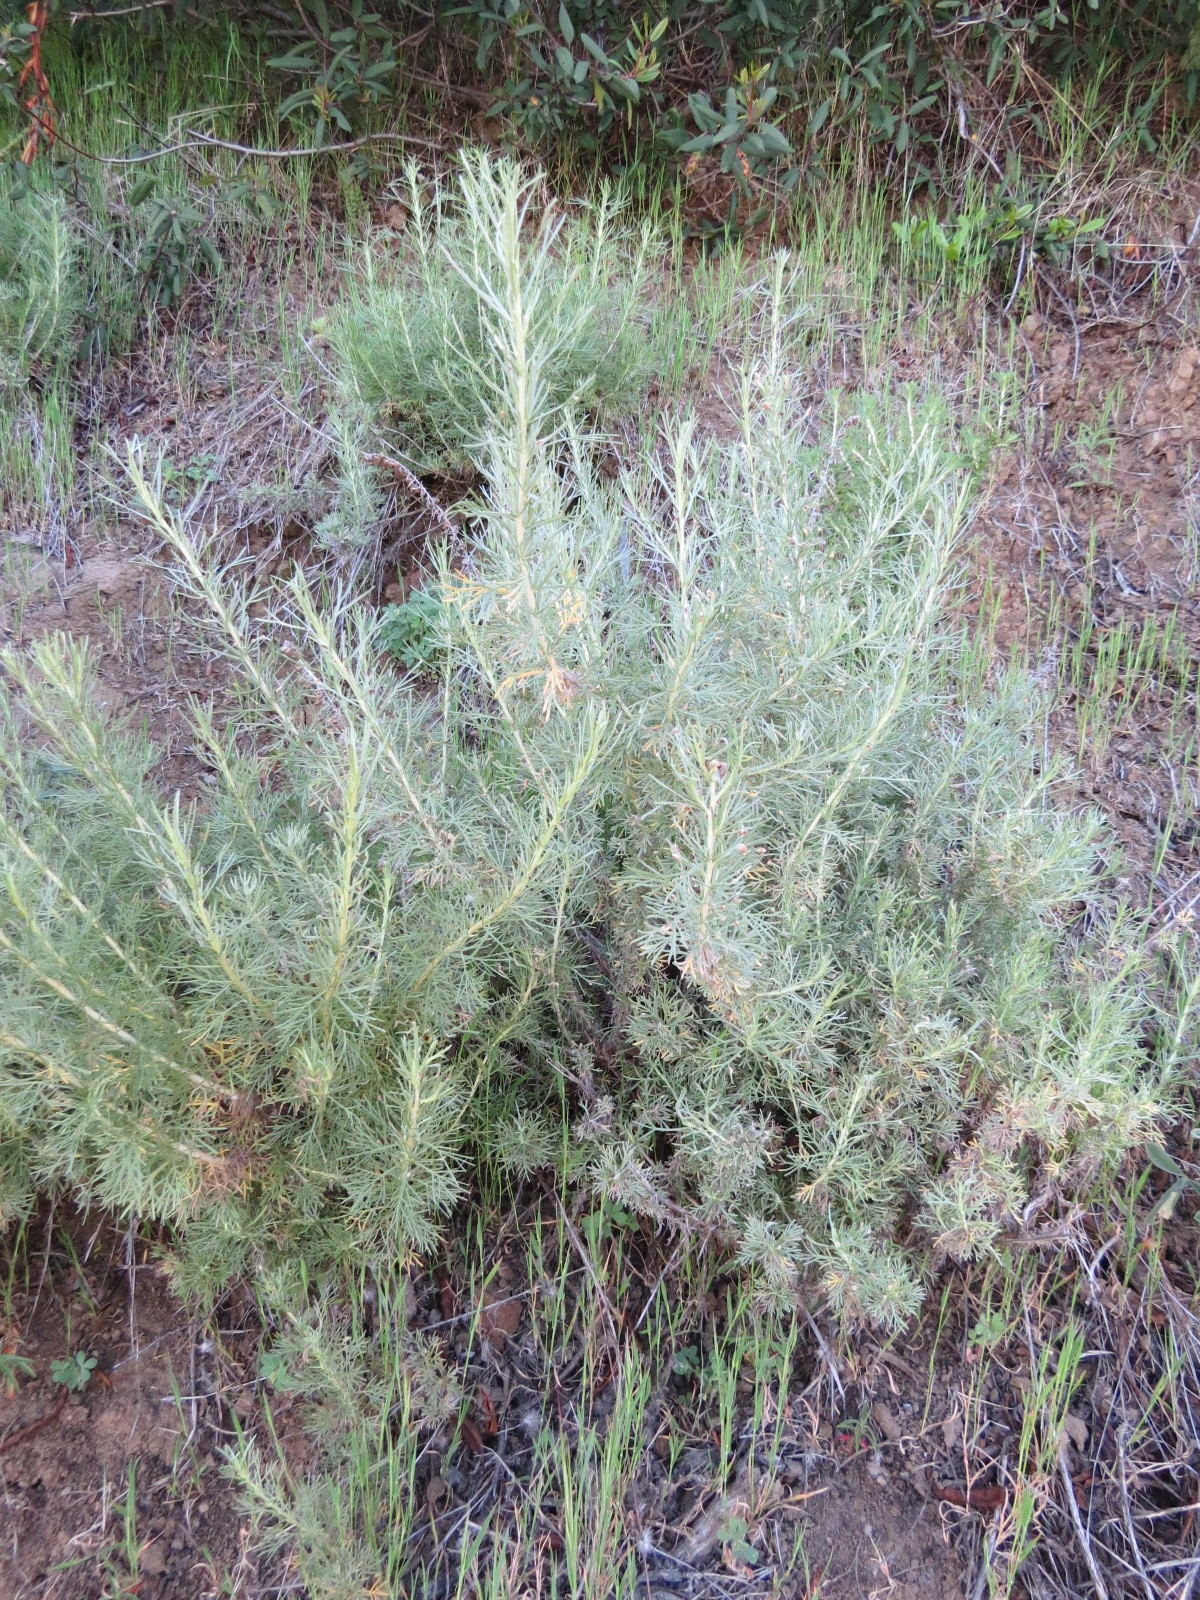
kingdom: Animalia
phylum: Arthropoda
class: Arachnida
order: Trombidiformes
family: Eriophyidae
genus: Aceria
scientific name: Aceria
